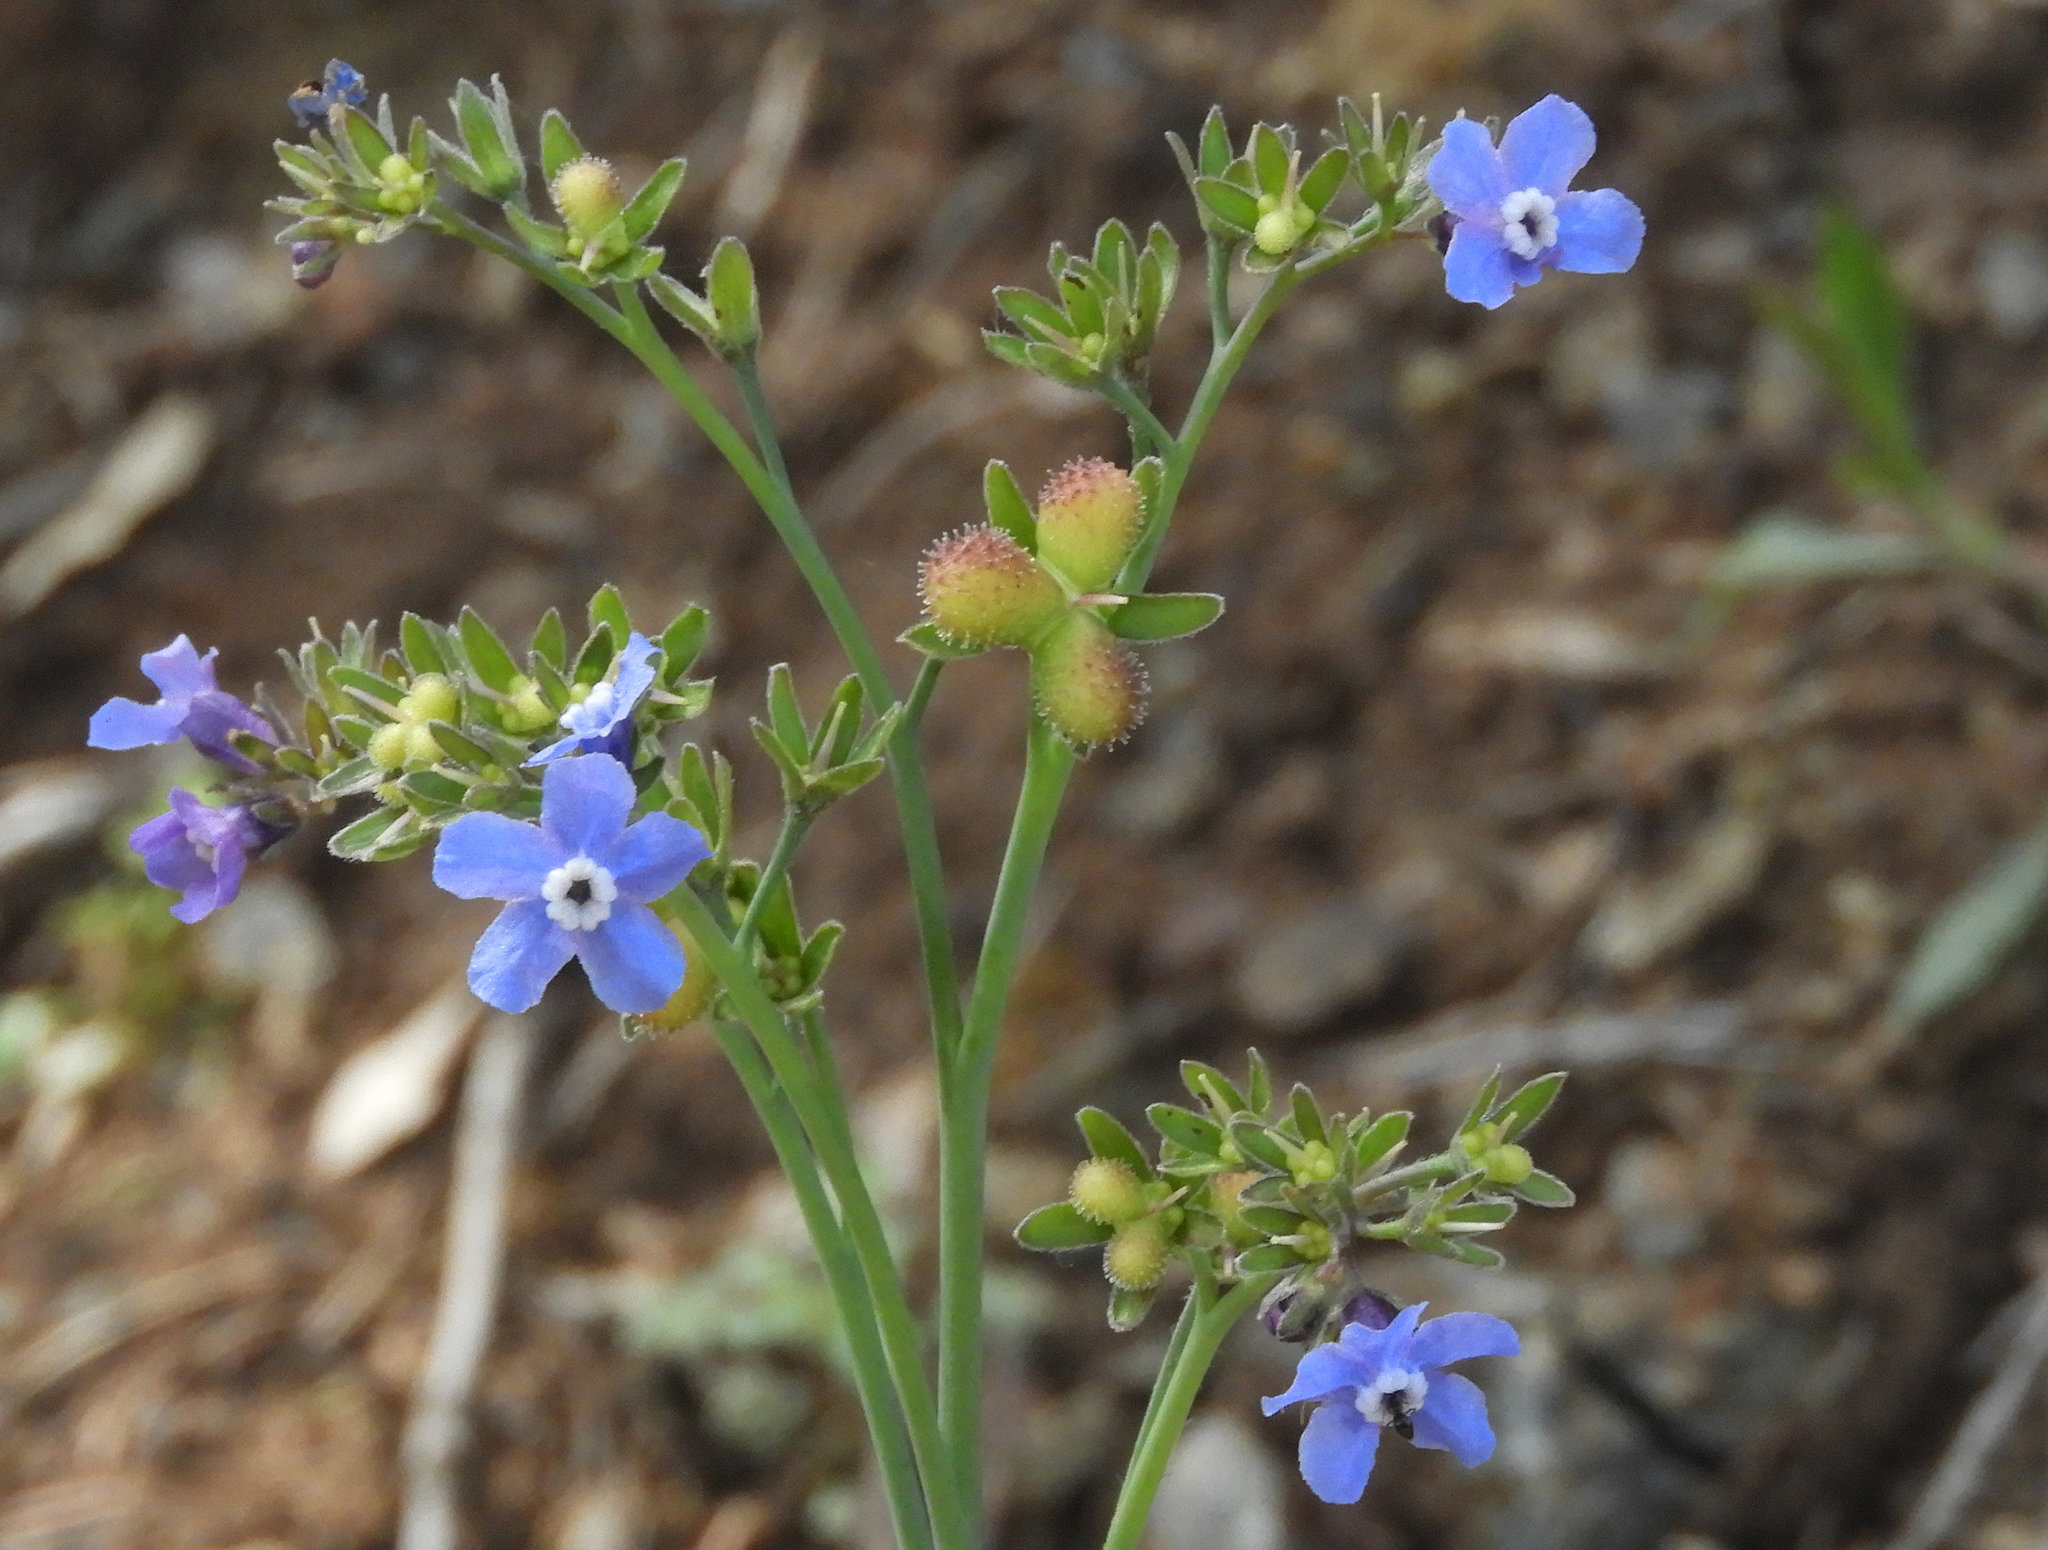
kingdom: Plantae
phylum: Tracheophyta
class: Magnoliopsida
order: Boraginales
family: Boraginaceae
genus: Adelinia
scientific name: Adelinia grande
